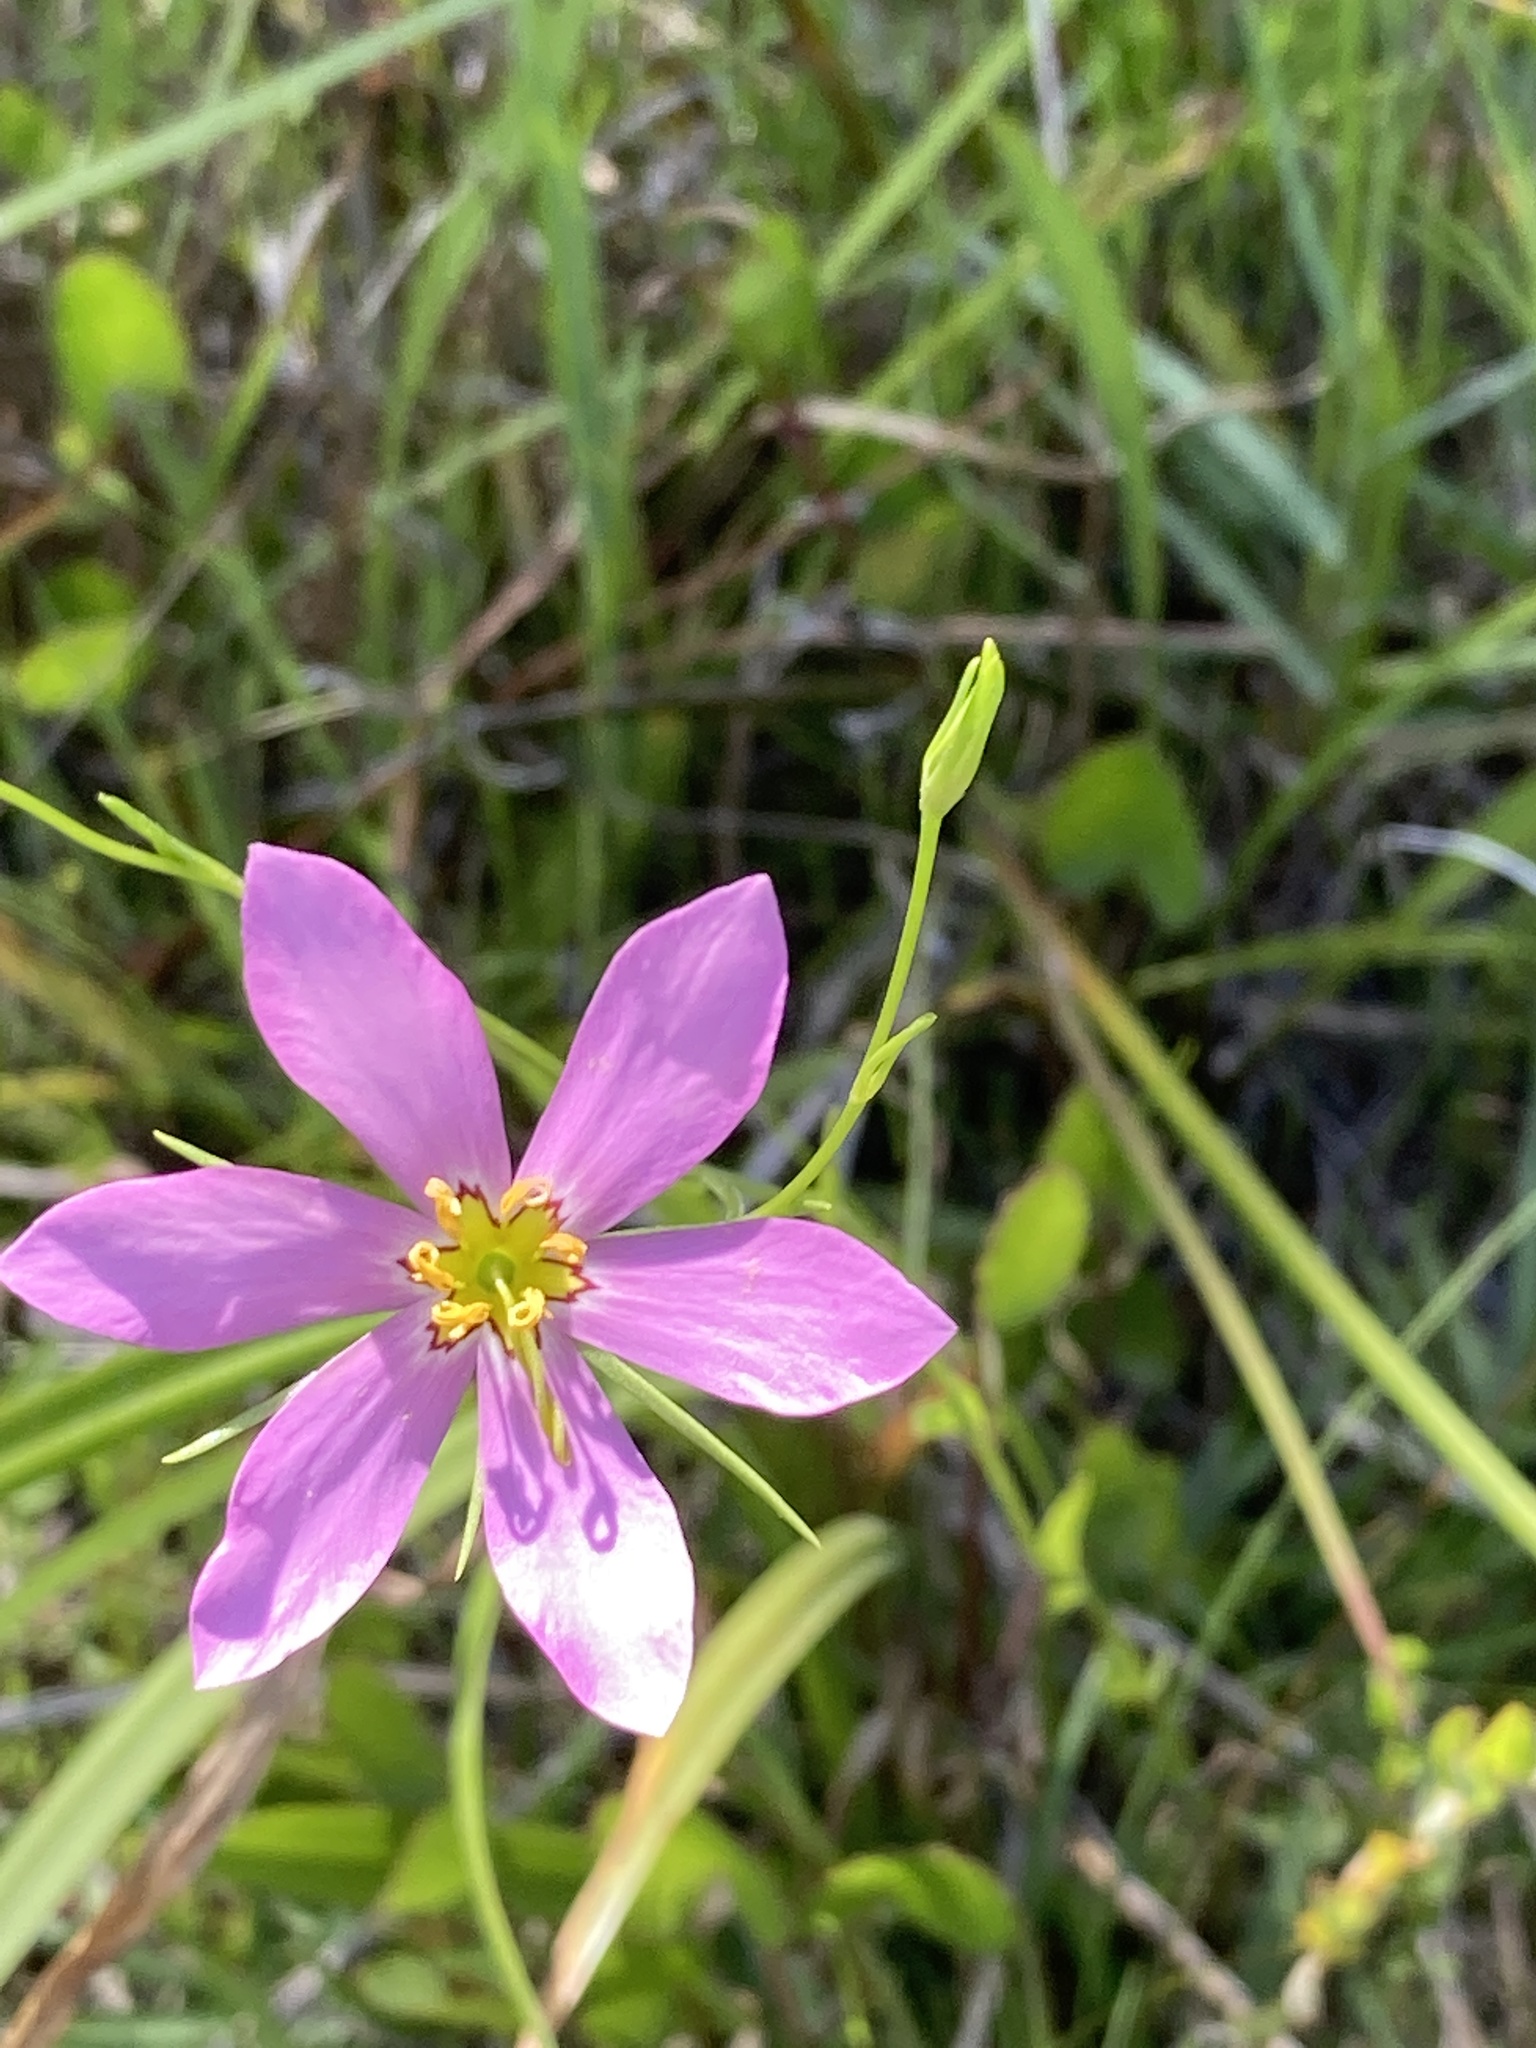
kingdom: Plantae
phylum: Tracheophyta
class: Magnoliopsida
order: Gentianales
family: Gentianaceae
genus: Sabatia
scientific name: Sabatia stellaris
